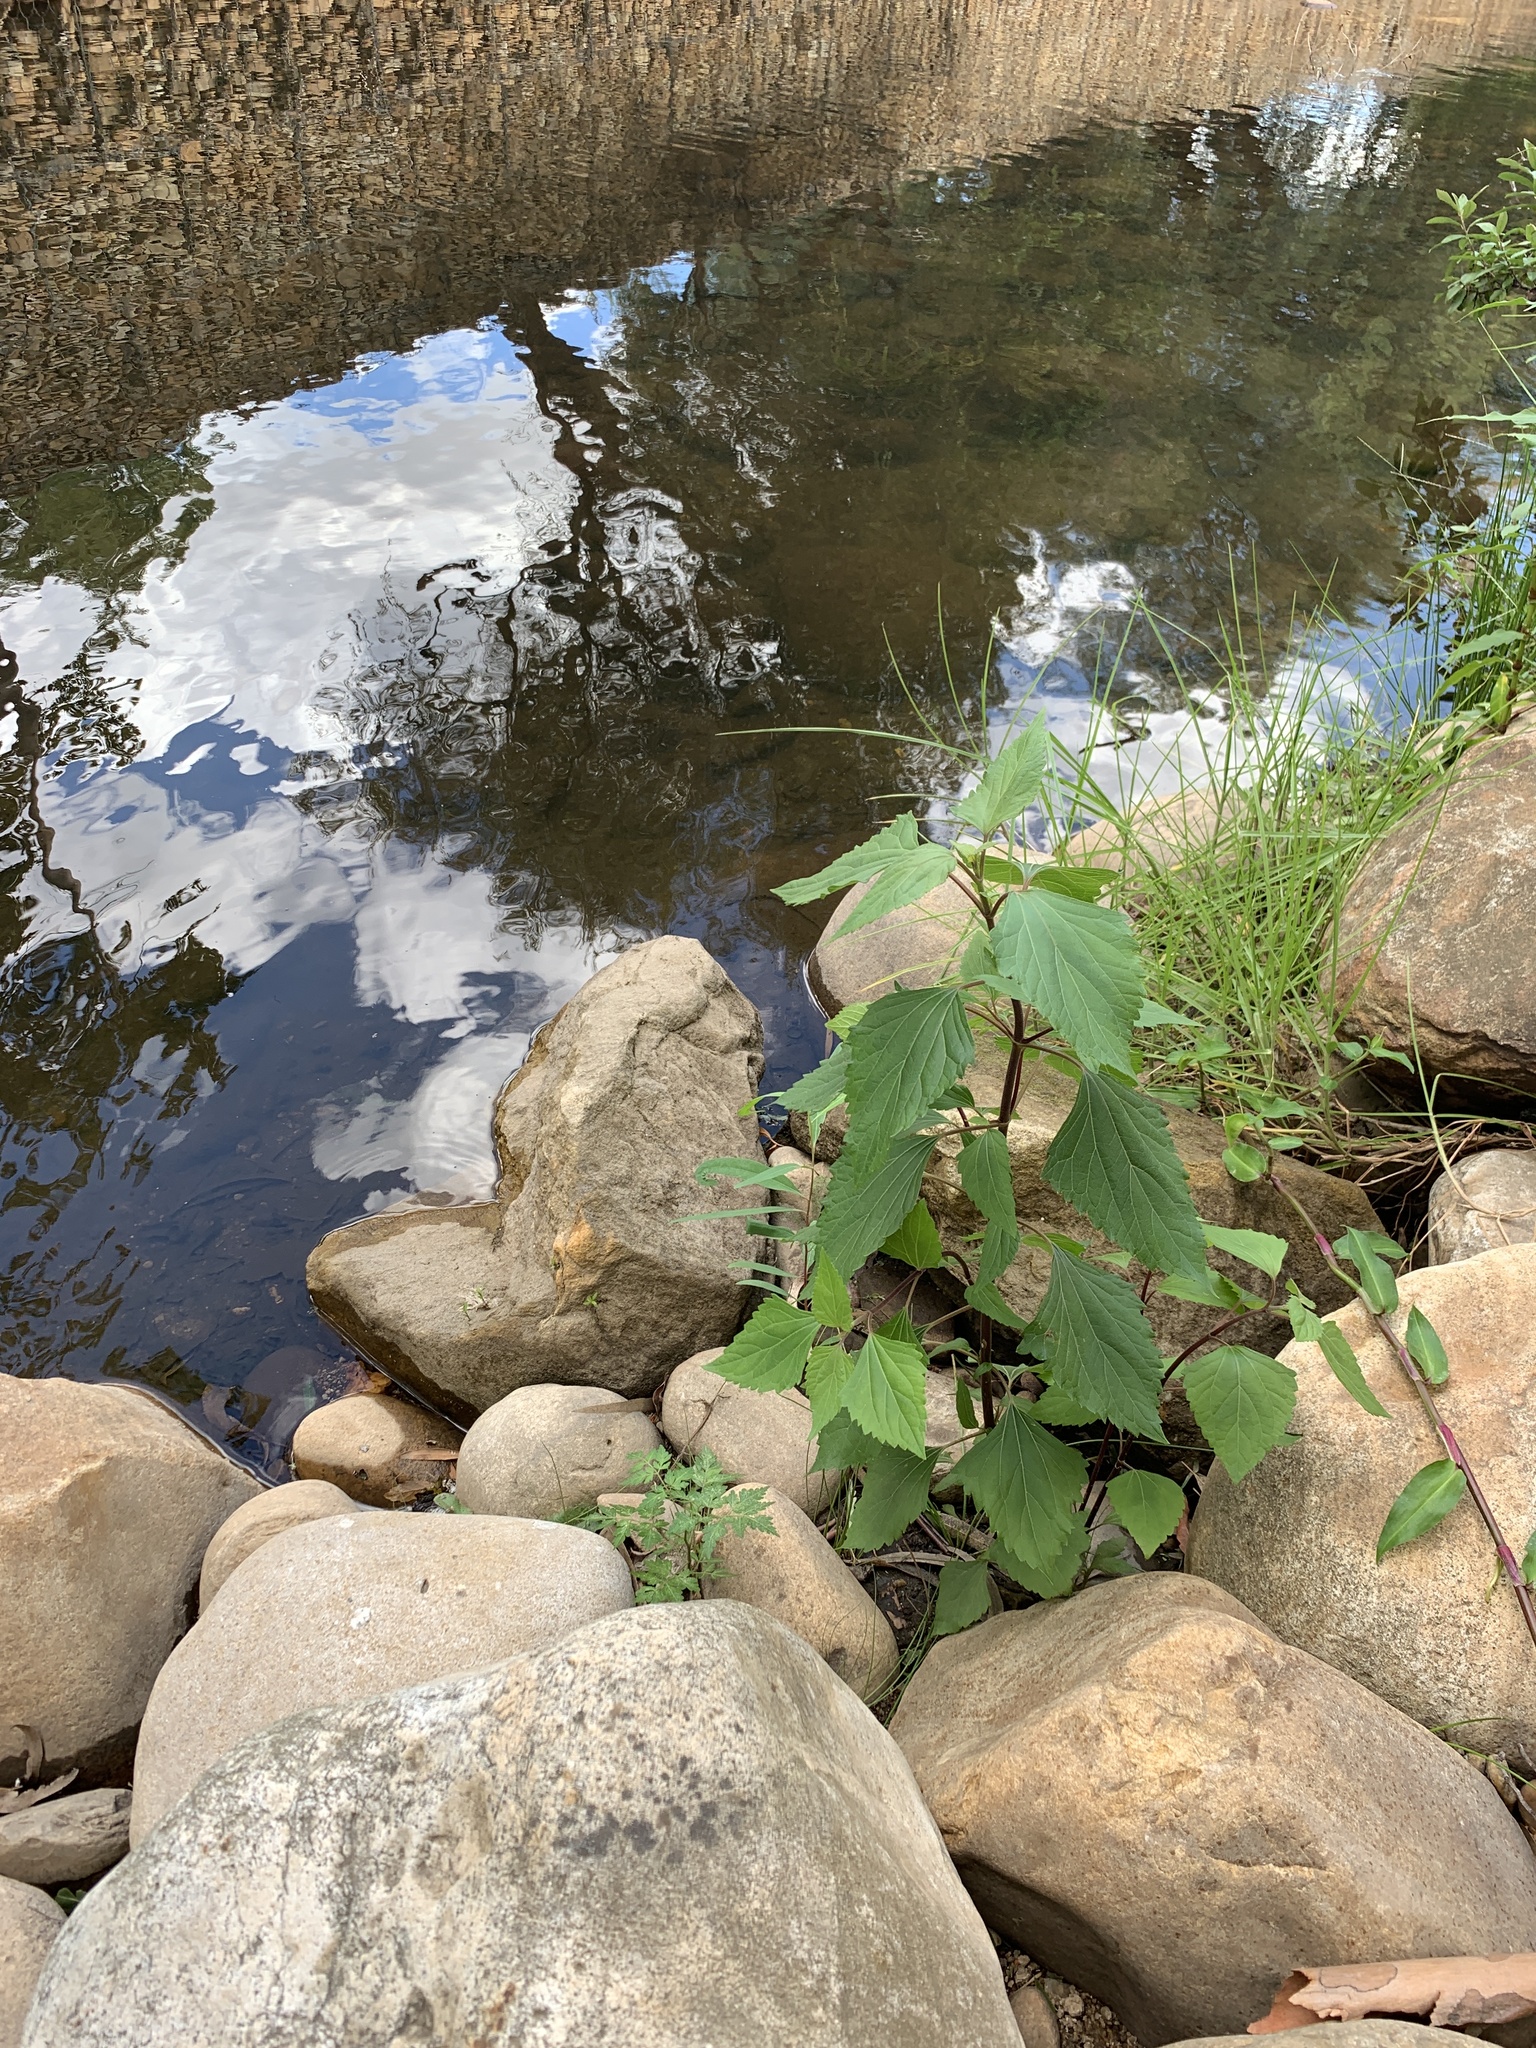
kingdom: Plantae
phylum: Tracheophyta
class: Magnoliopsida
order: Asterales
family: Asteraceae
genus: Ageratina
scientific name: Ageratina adenophora
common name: Sticky snakeroot
